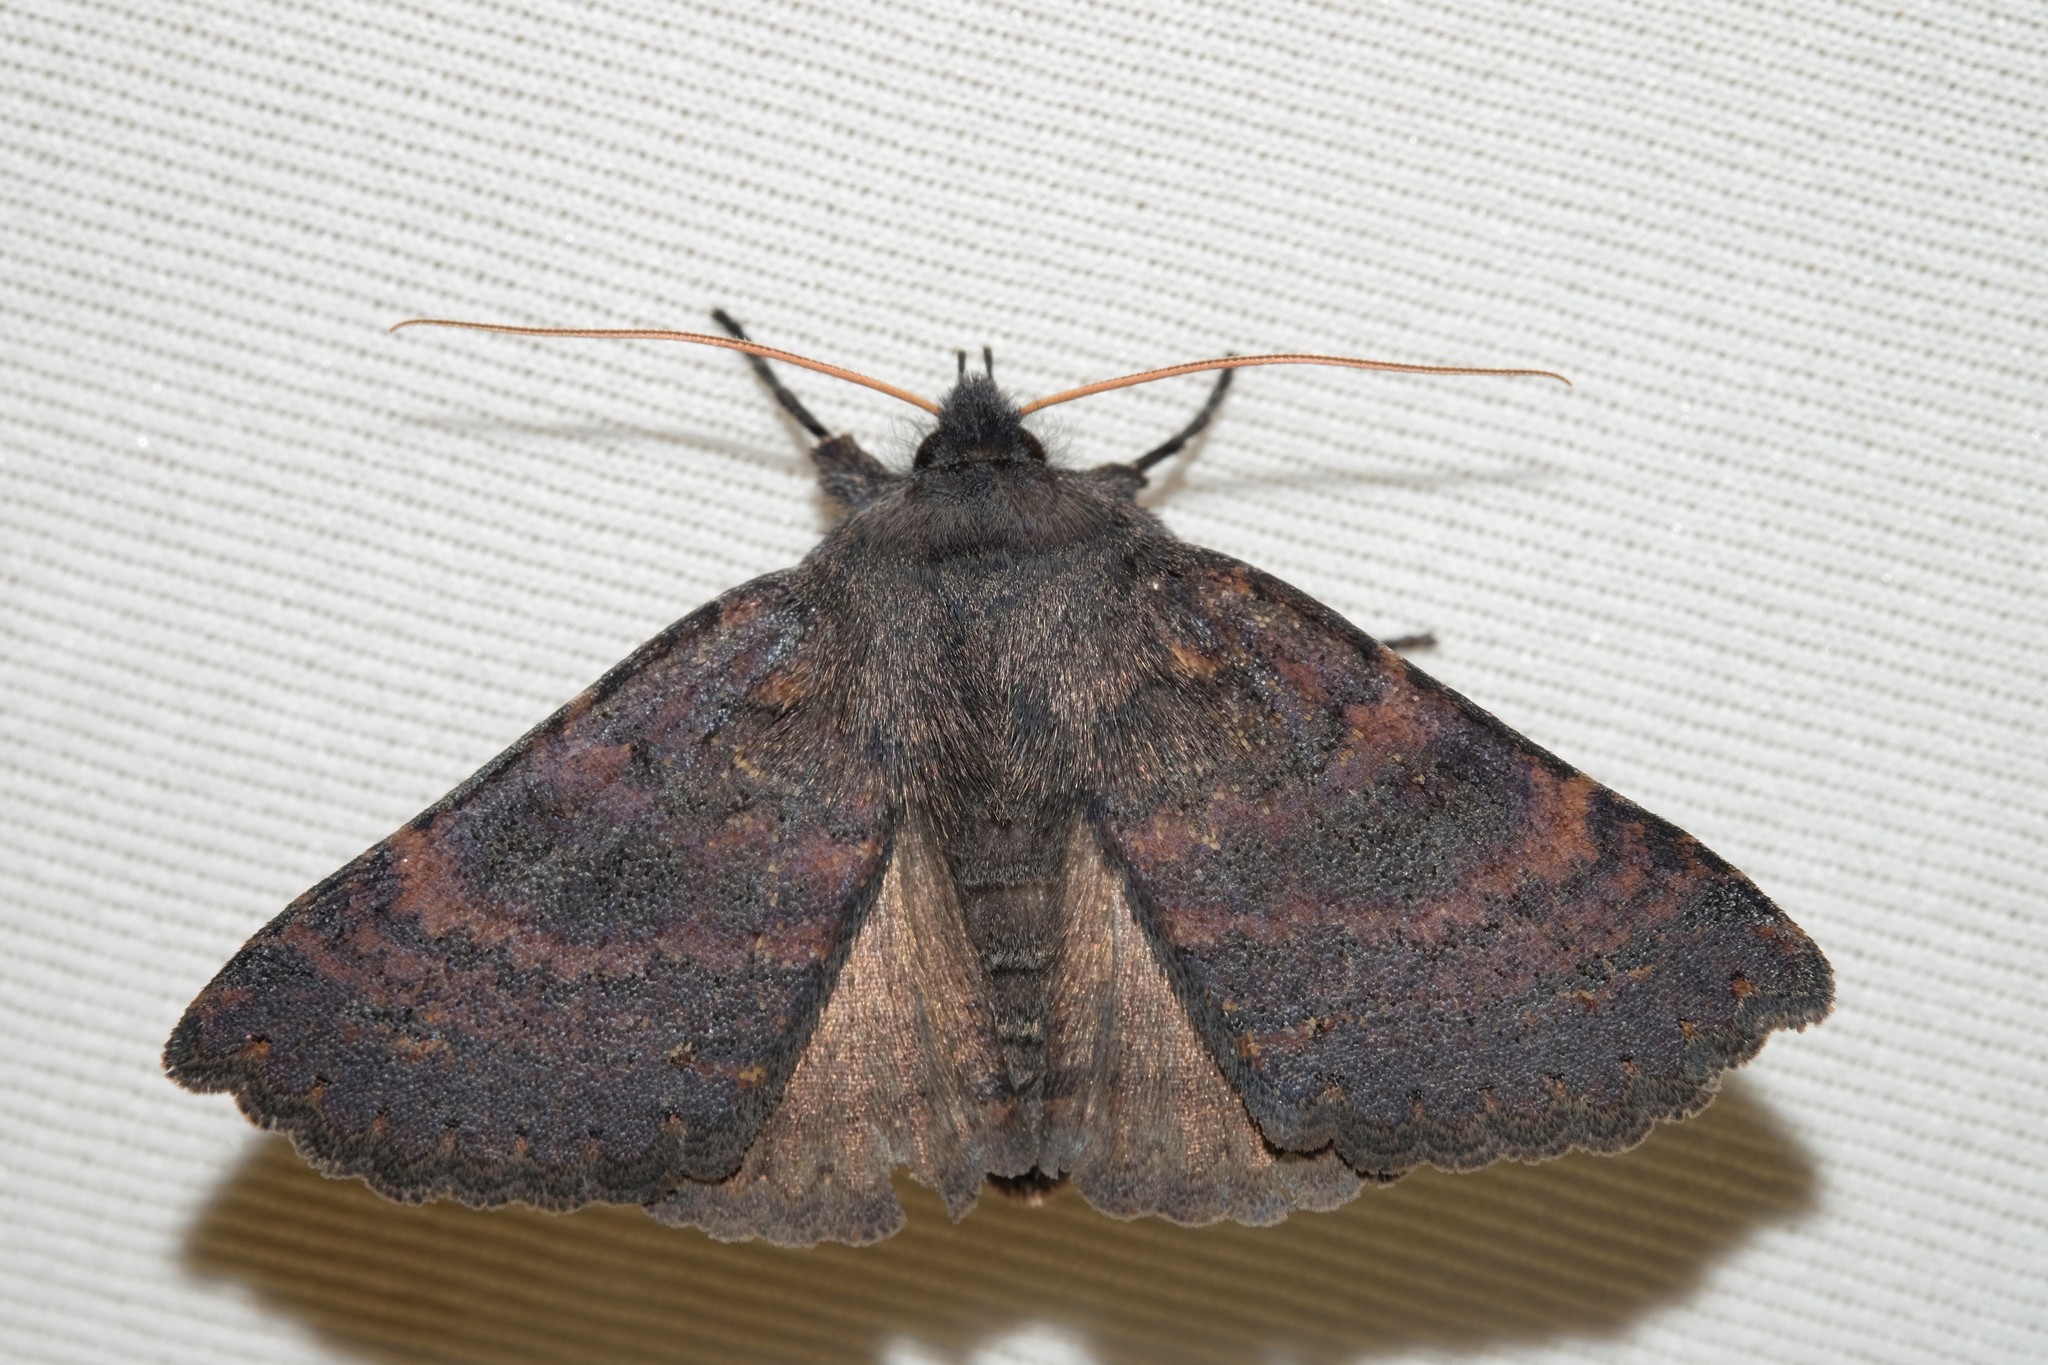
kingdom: Animalia
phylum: Arthropoda
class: Insecta
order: Lepidoptera
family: Erebidae
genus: Praxis
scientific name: Praxis pandesma
